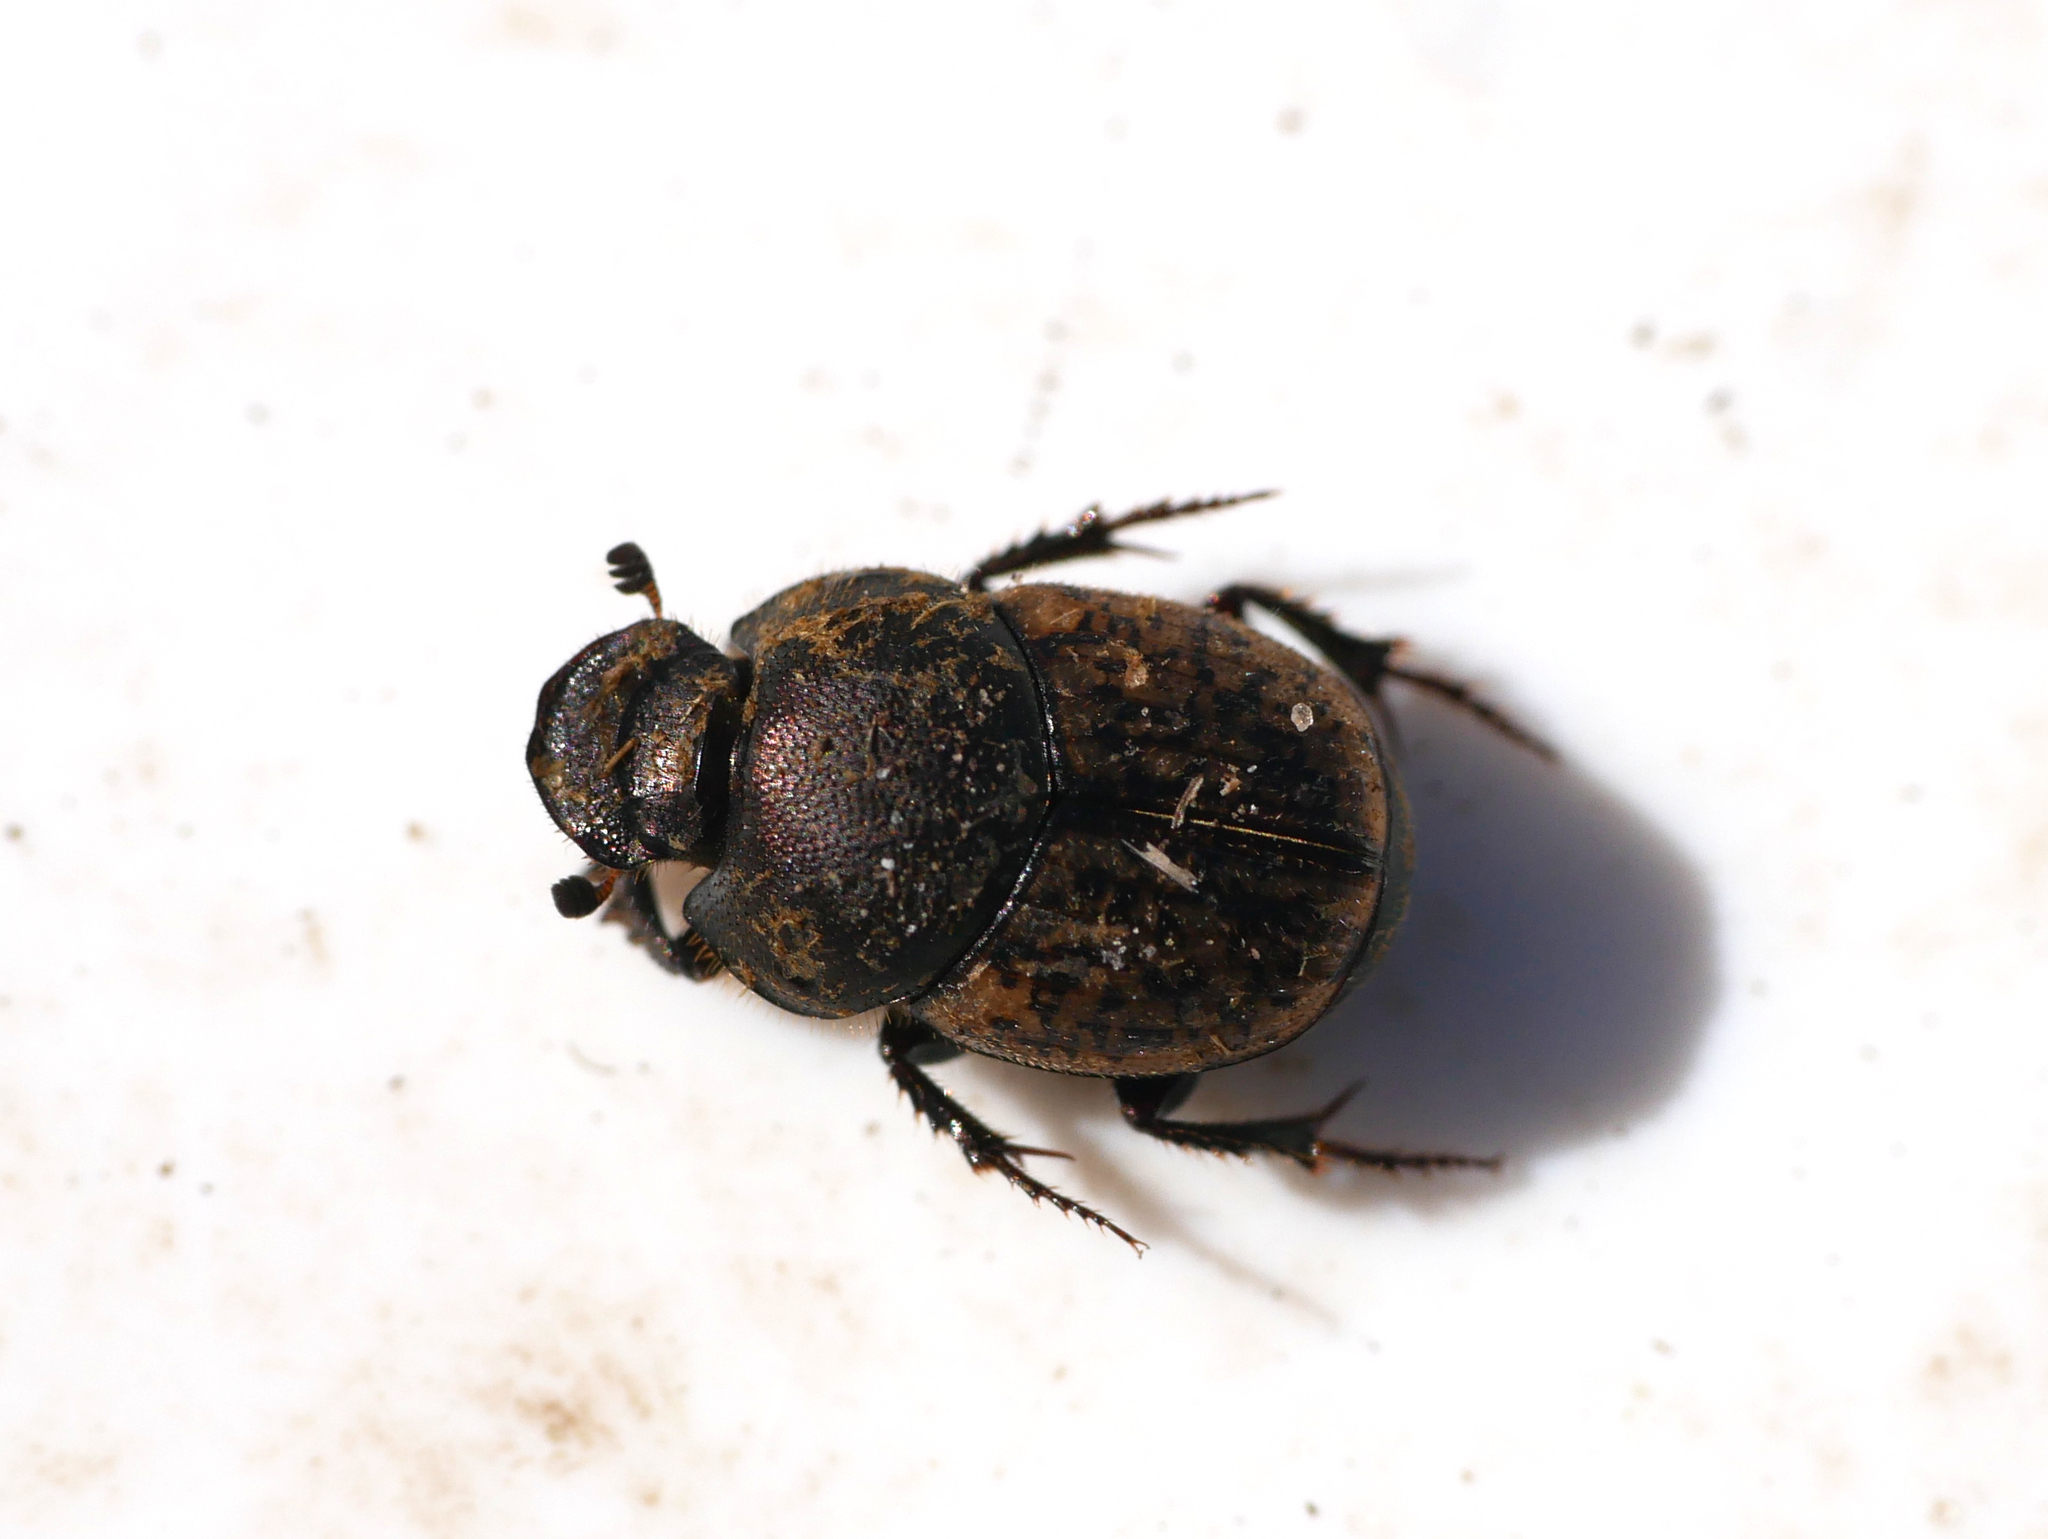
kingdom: Animalia
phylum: Arthropoda
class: Insecta
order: Coleoptera
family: Scarabaeidae
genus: Onthophagus
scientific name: Onthophagus similis
